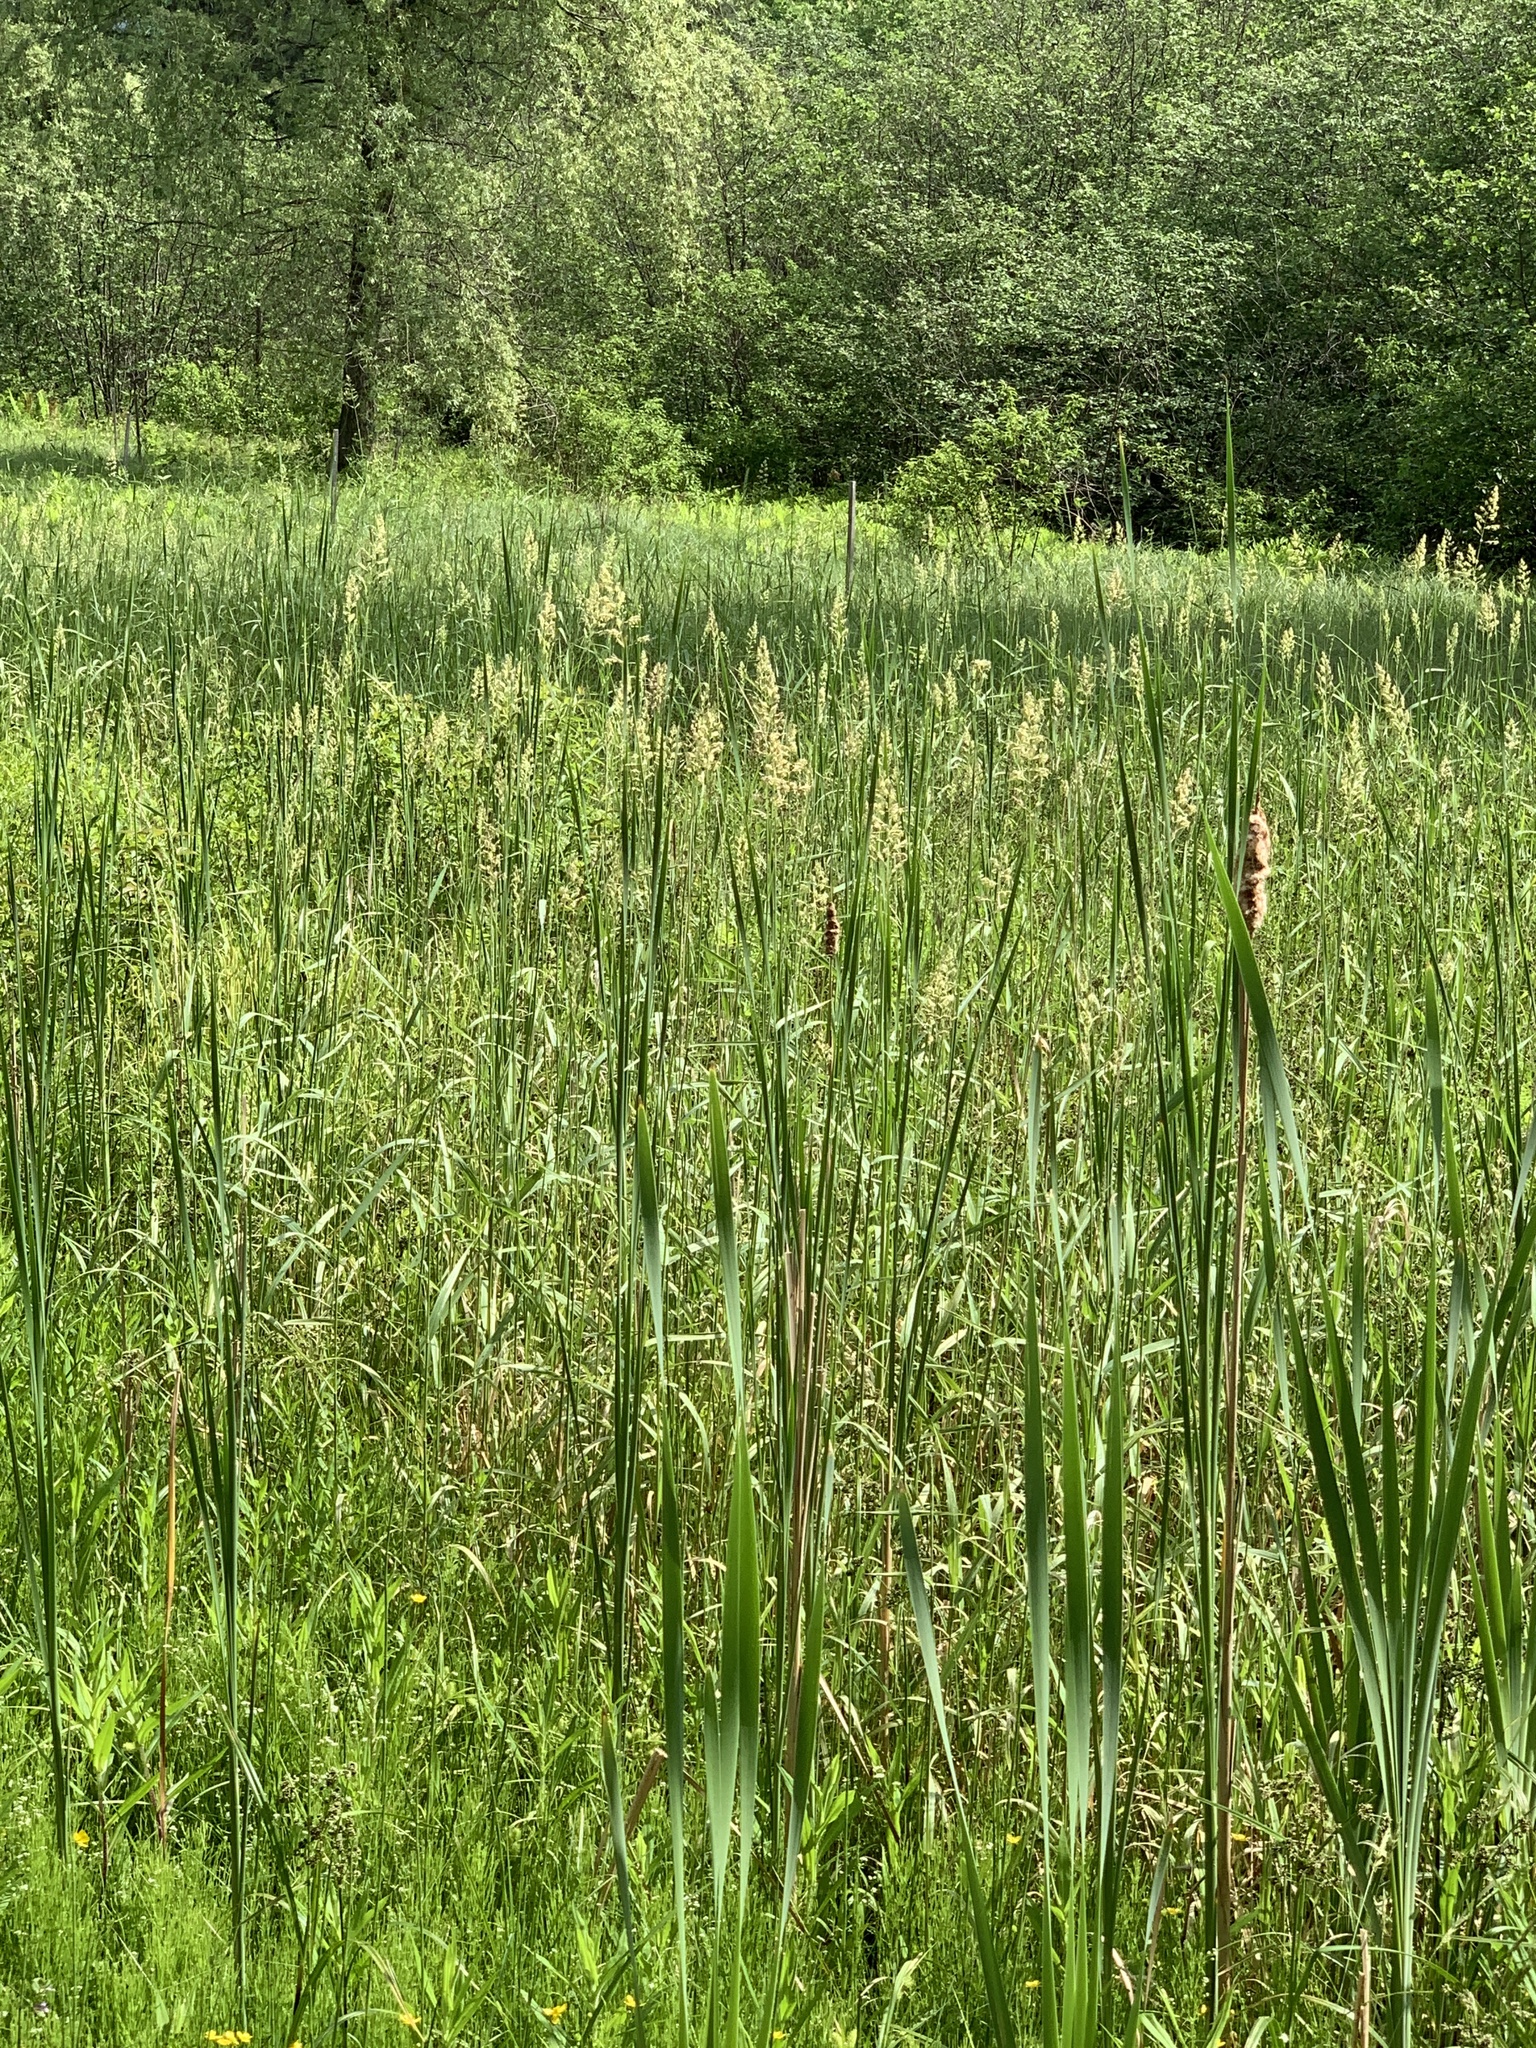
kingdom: Plantae
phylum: Tracheophyta
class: Liliopsida
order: Poales
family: Poaceae
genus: Phalaris
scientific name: Phalaris arundinacea
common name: Reed canary-grass
